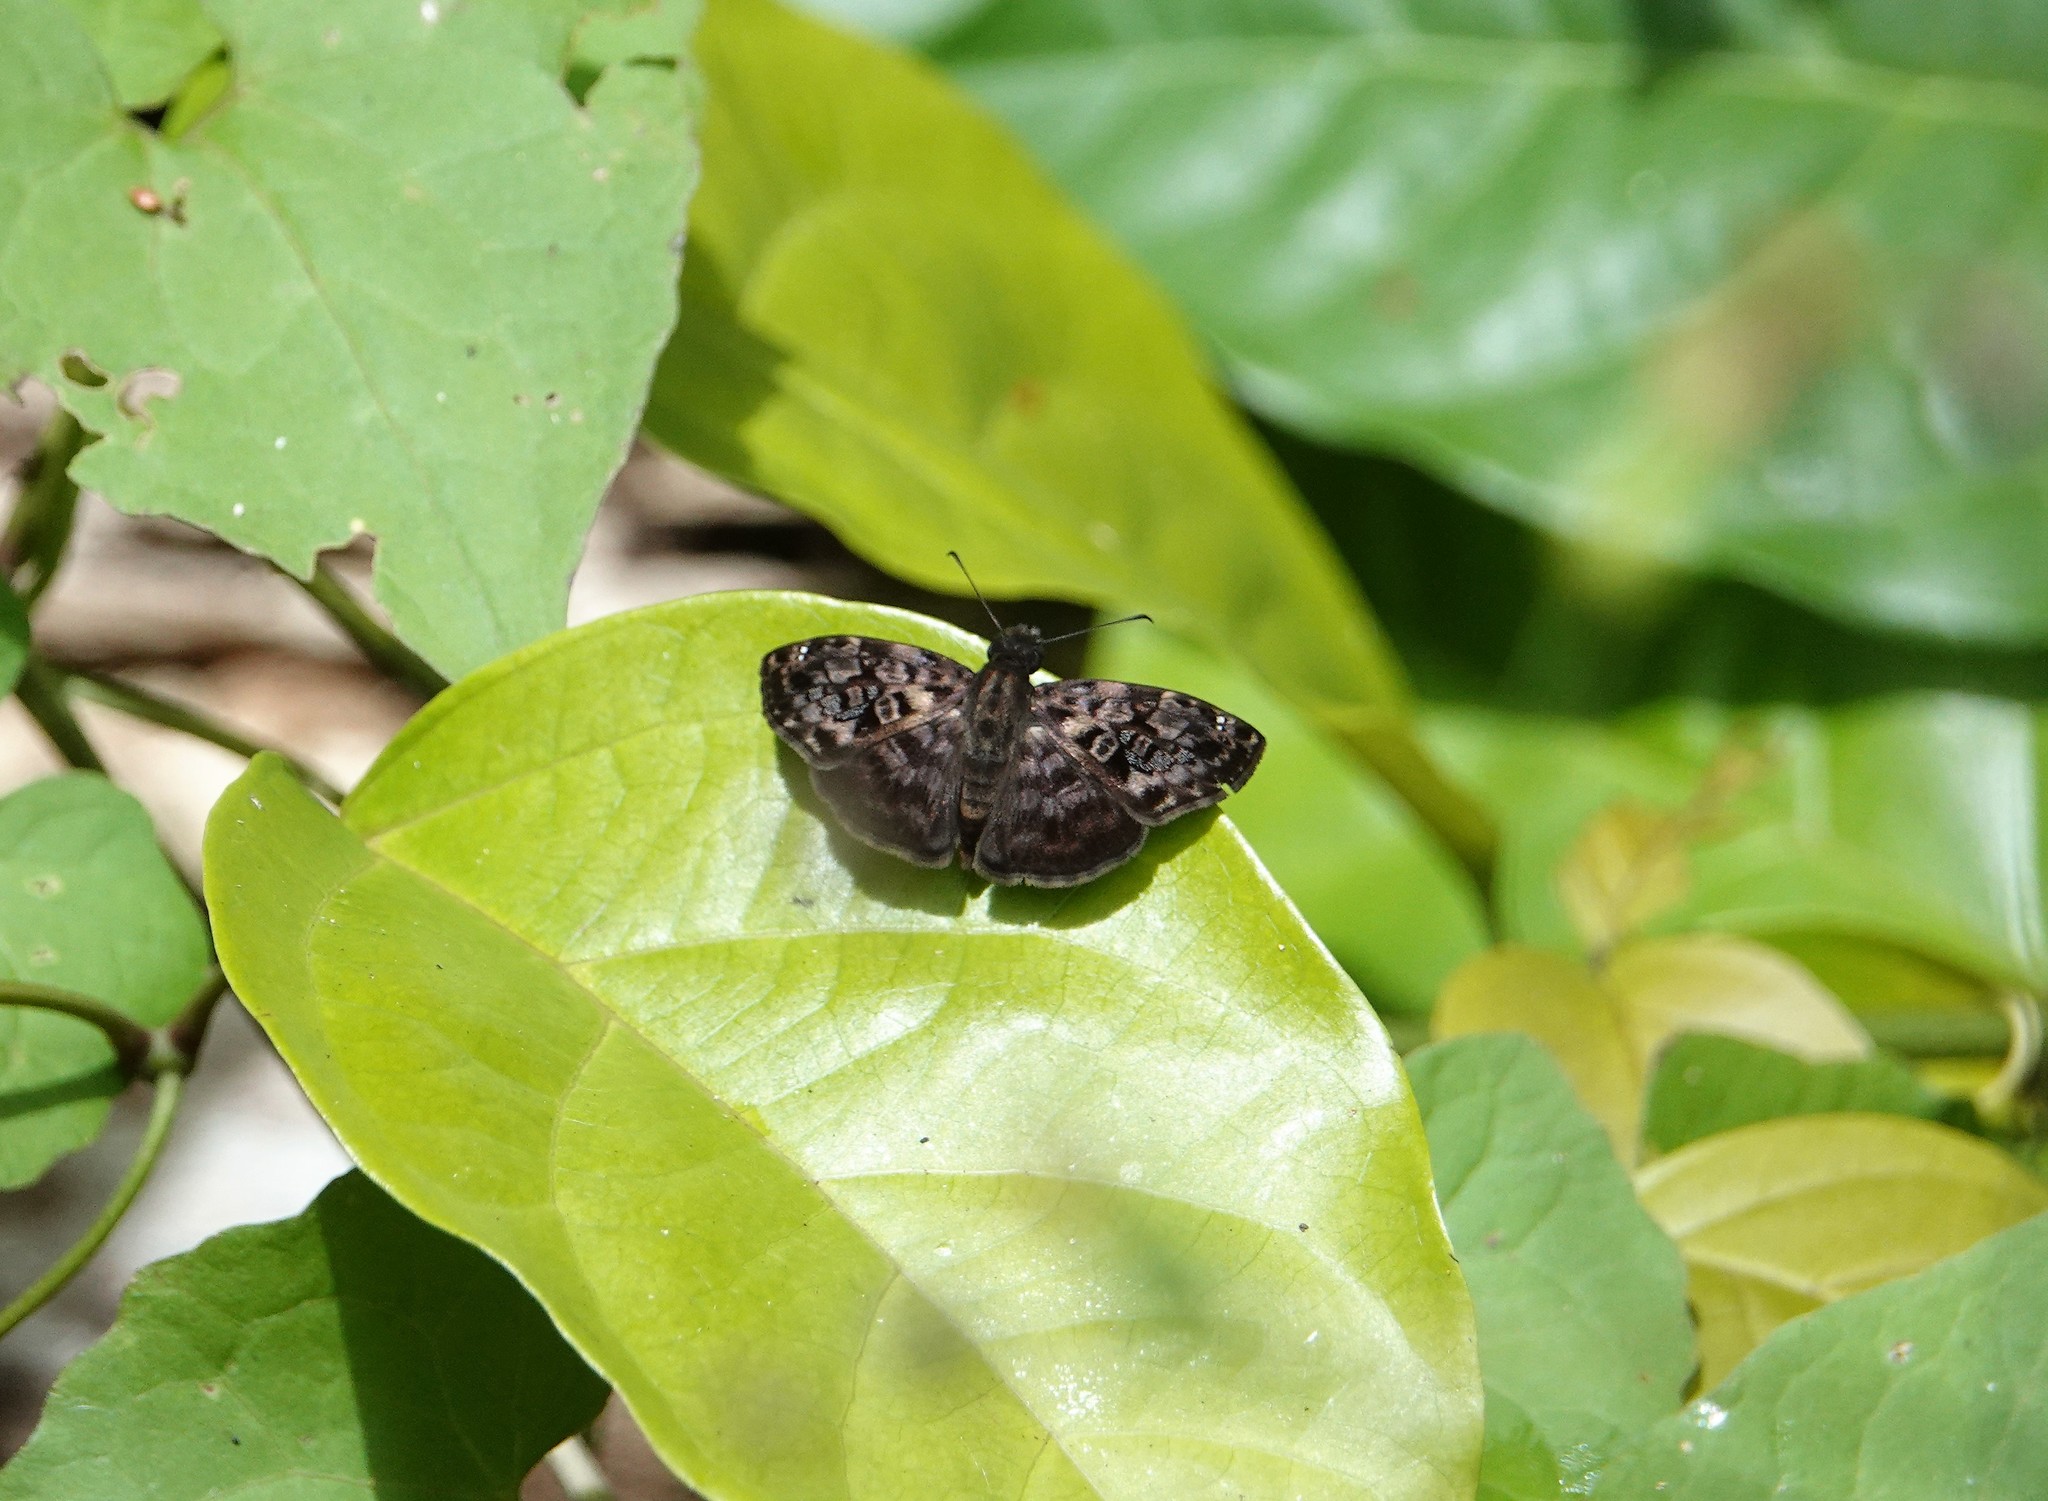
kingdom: Animalia
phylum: Arthropoda
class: Insecta
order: Lepidoptera
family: Hesperiidae
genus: Gorgythion
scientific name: Gorgythion begga
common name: Variegated skipper
